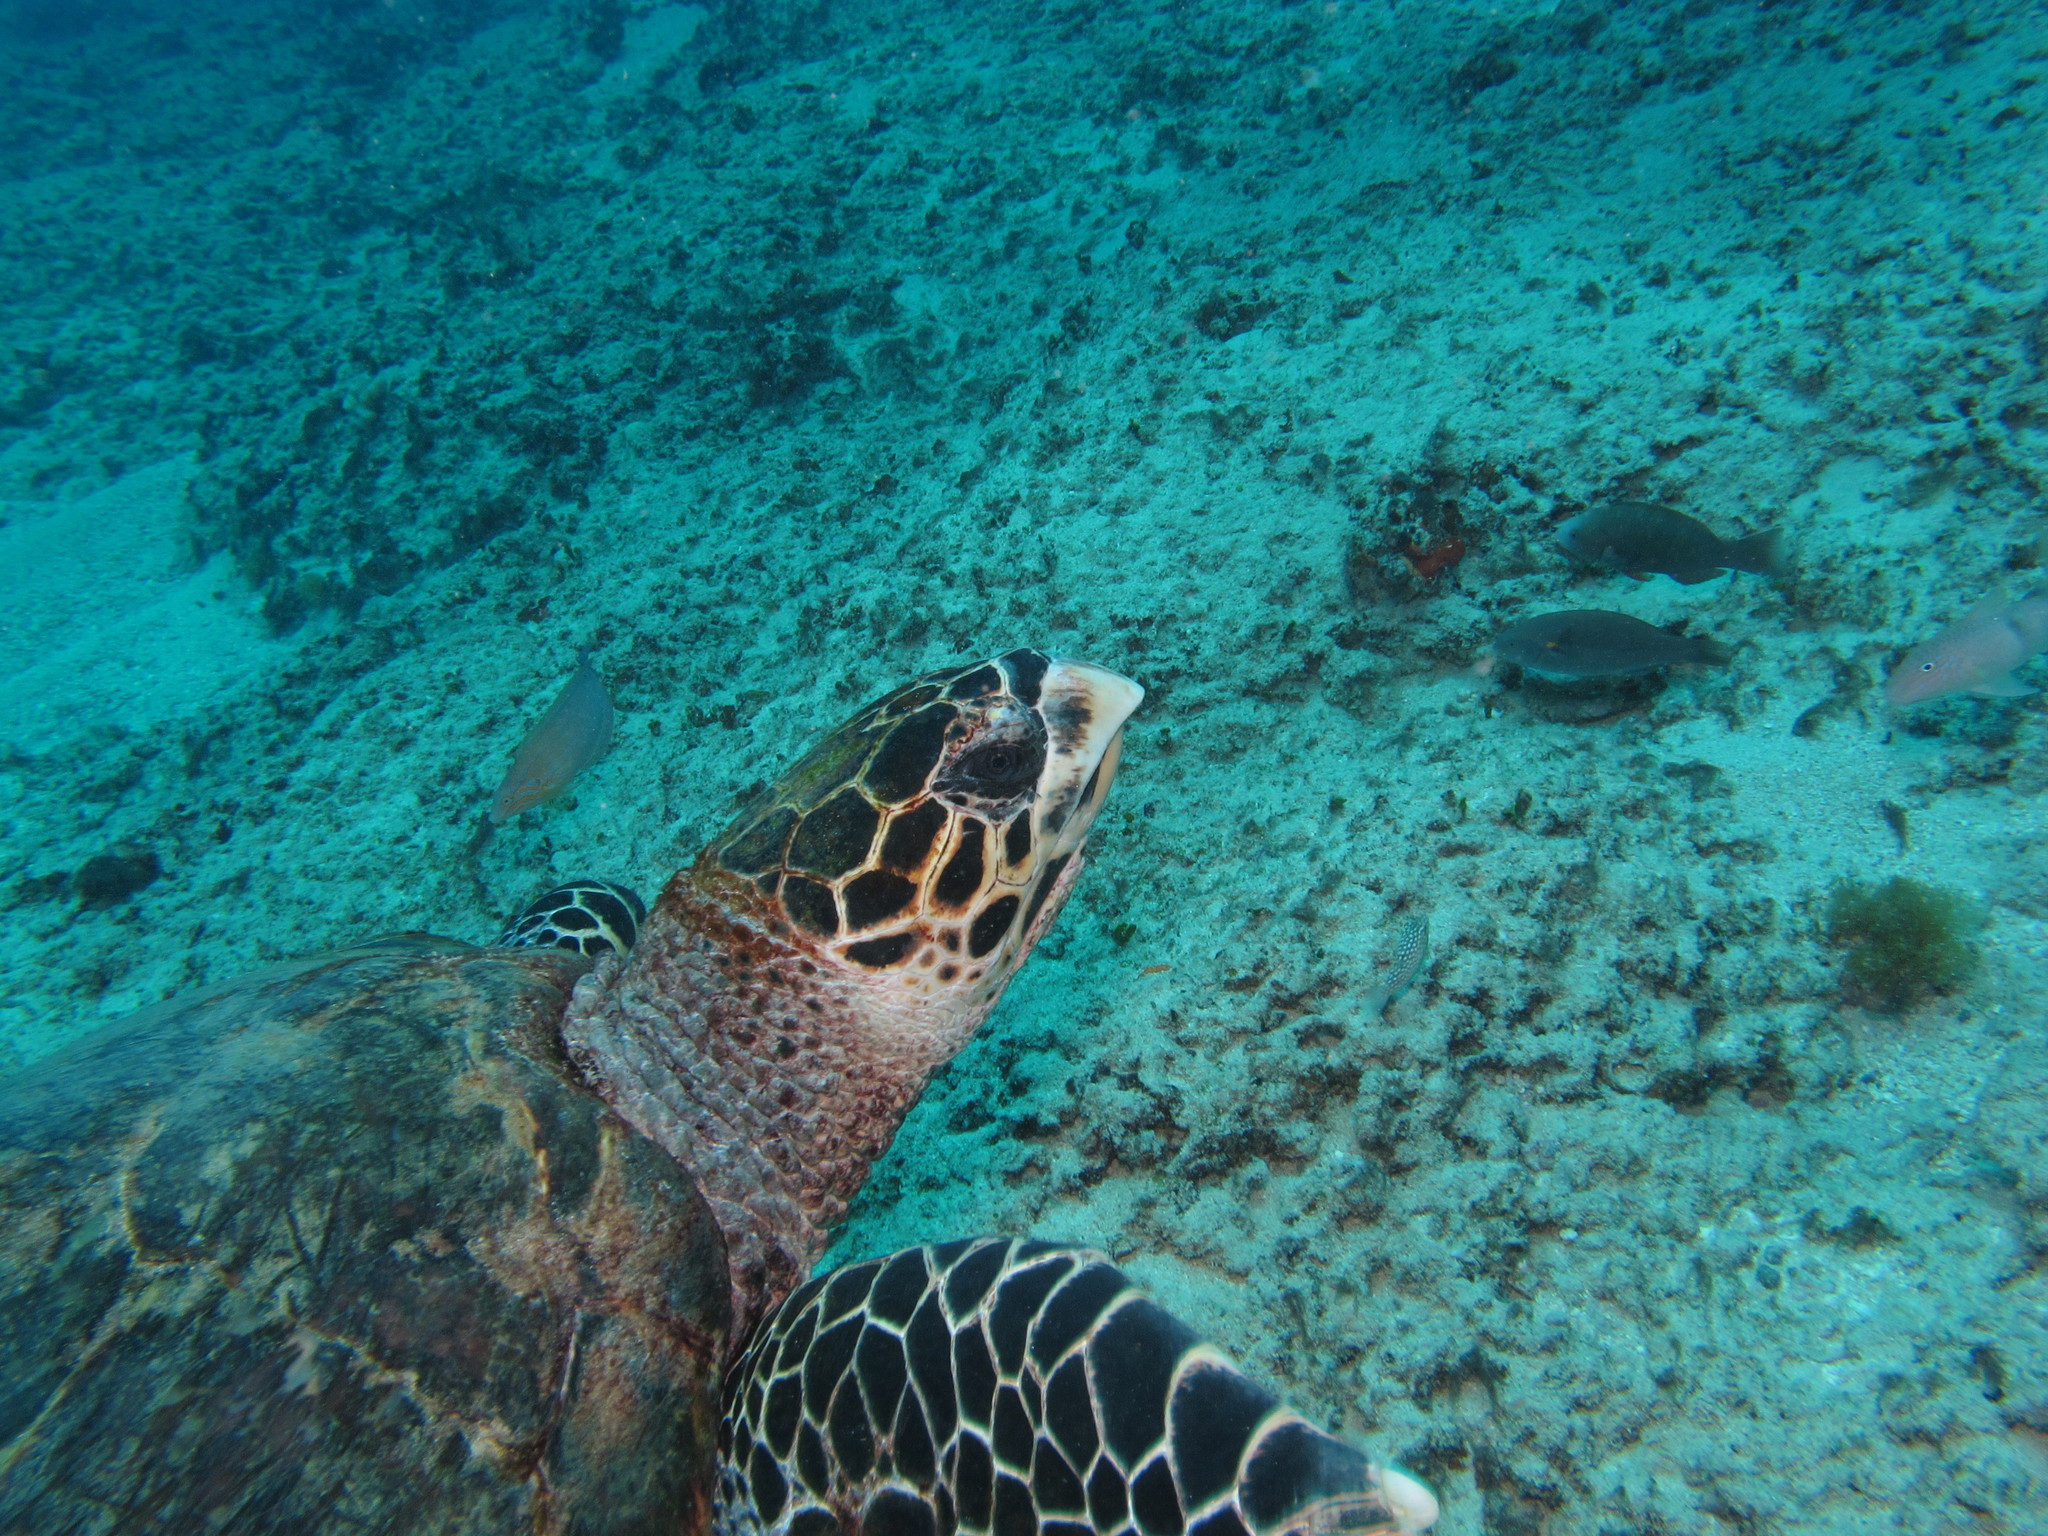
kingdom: Animalia
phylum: Chordata
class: Testudines
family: Cheloniidae
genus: Eretmochelys
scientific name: Eretmochelys imbricata
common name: Hawksbill turtle
